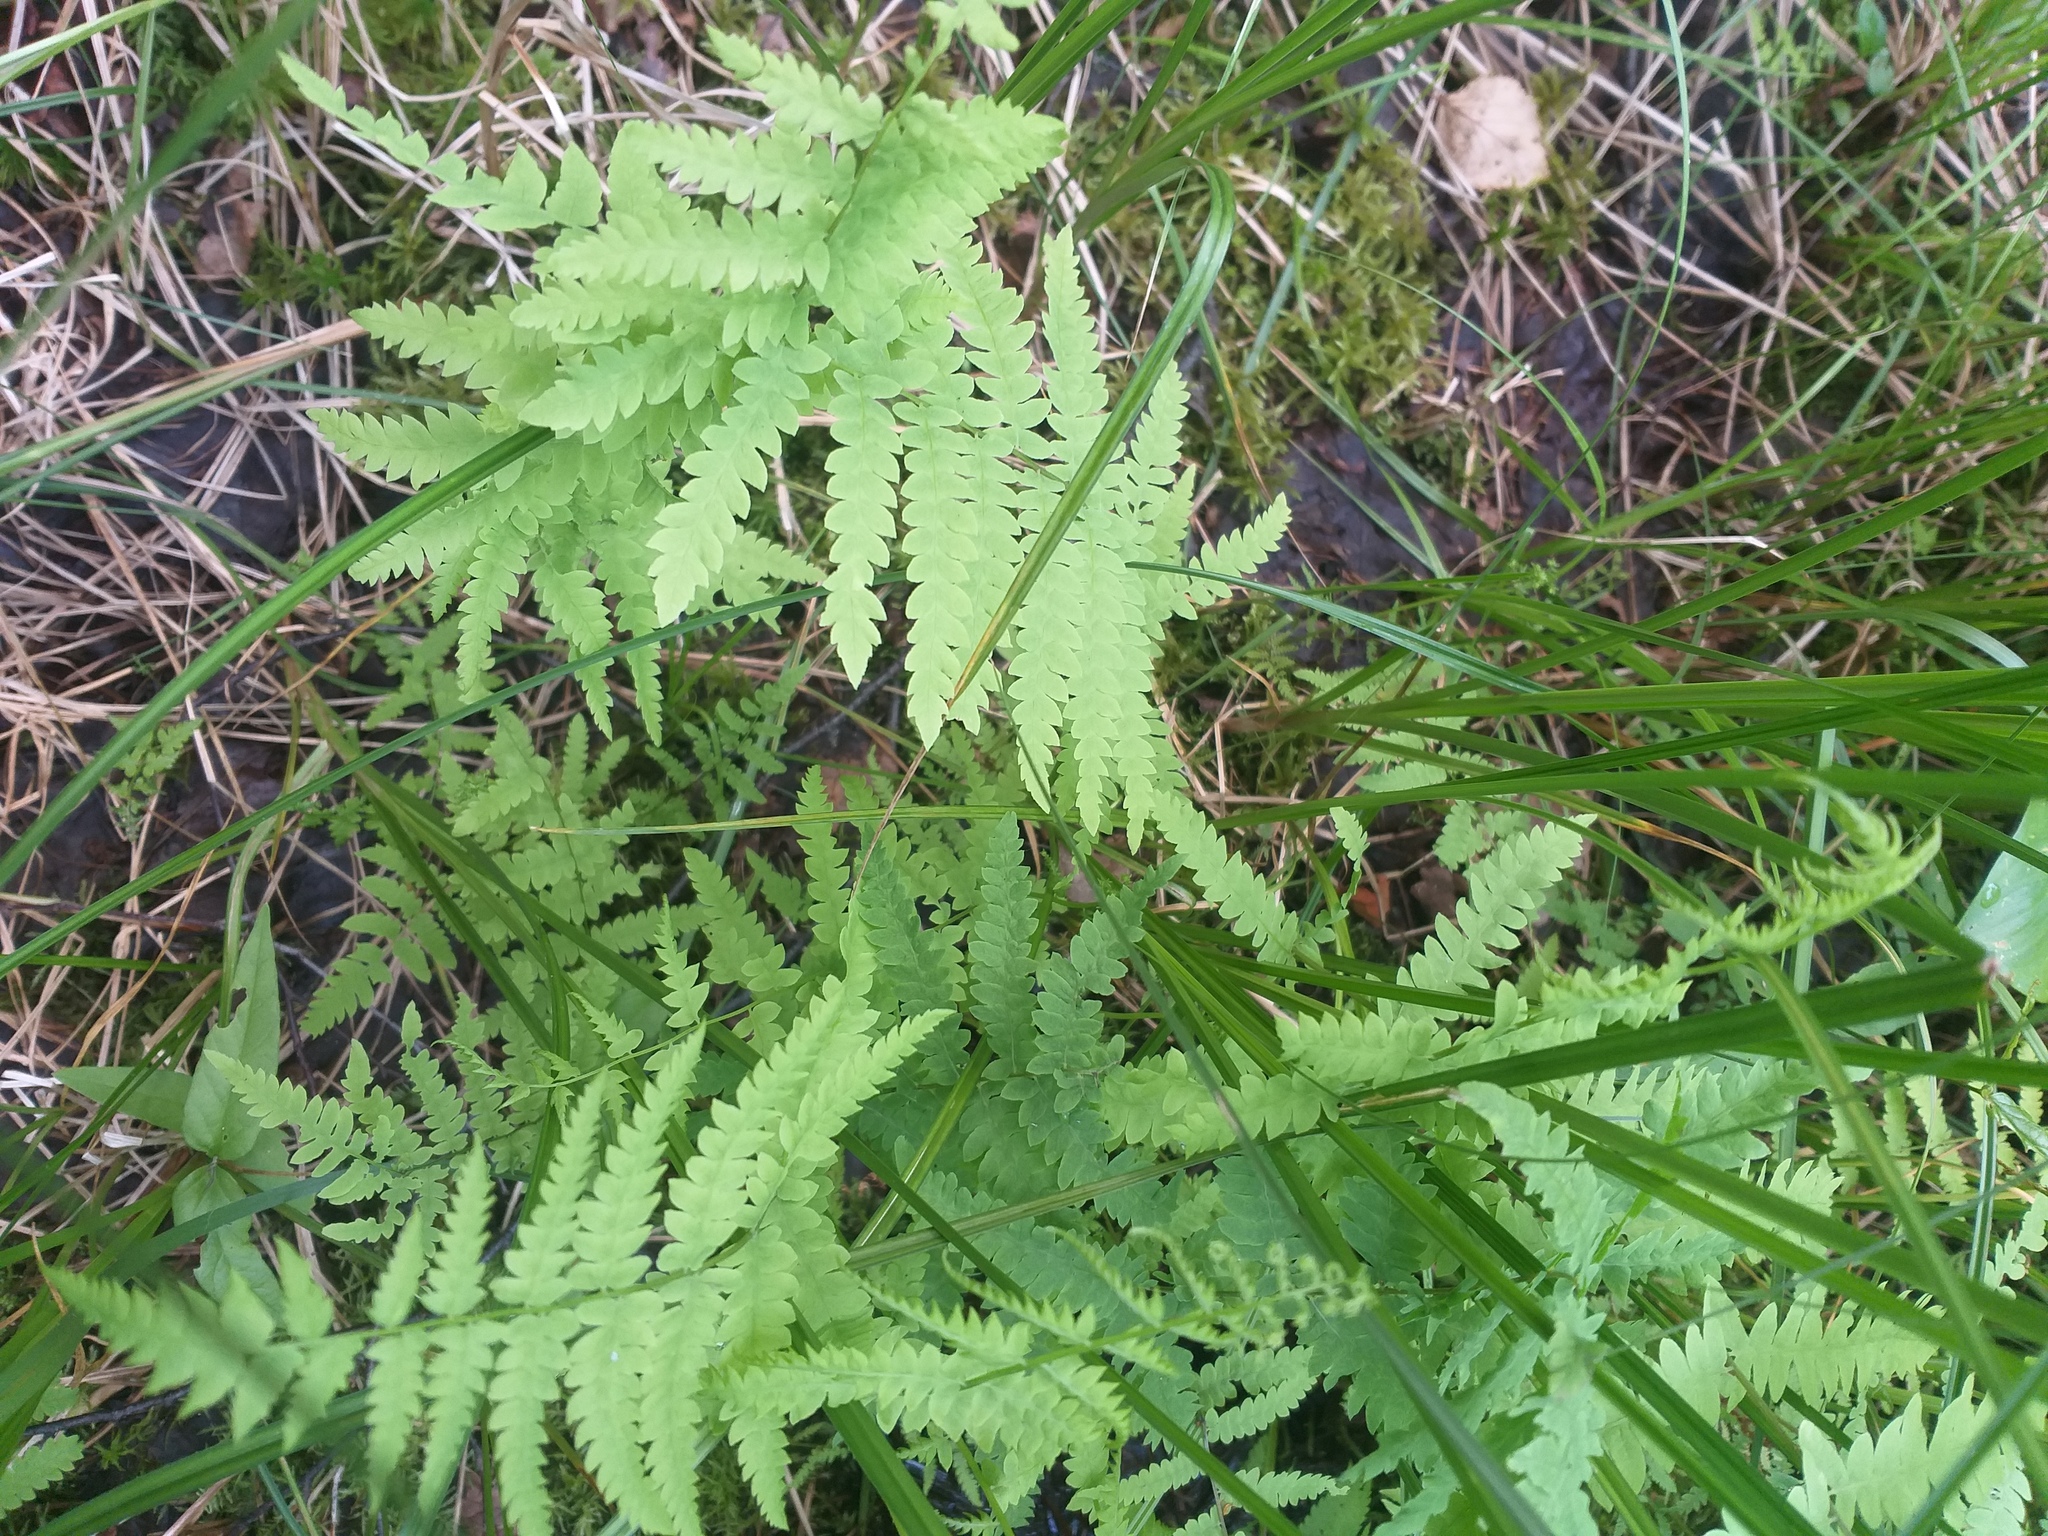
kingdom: Plantae
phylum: Tracheophyta
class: Polypodiopsida
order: Polypodiales
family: Thelypteridaceae
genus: Thelypteris
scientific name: Thelypteris palustris
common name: Marsh fern
